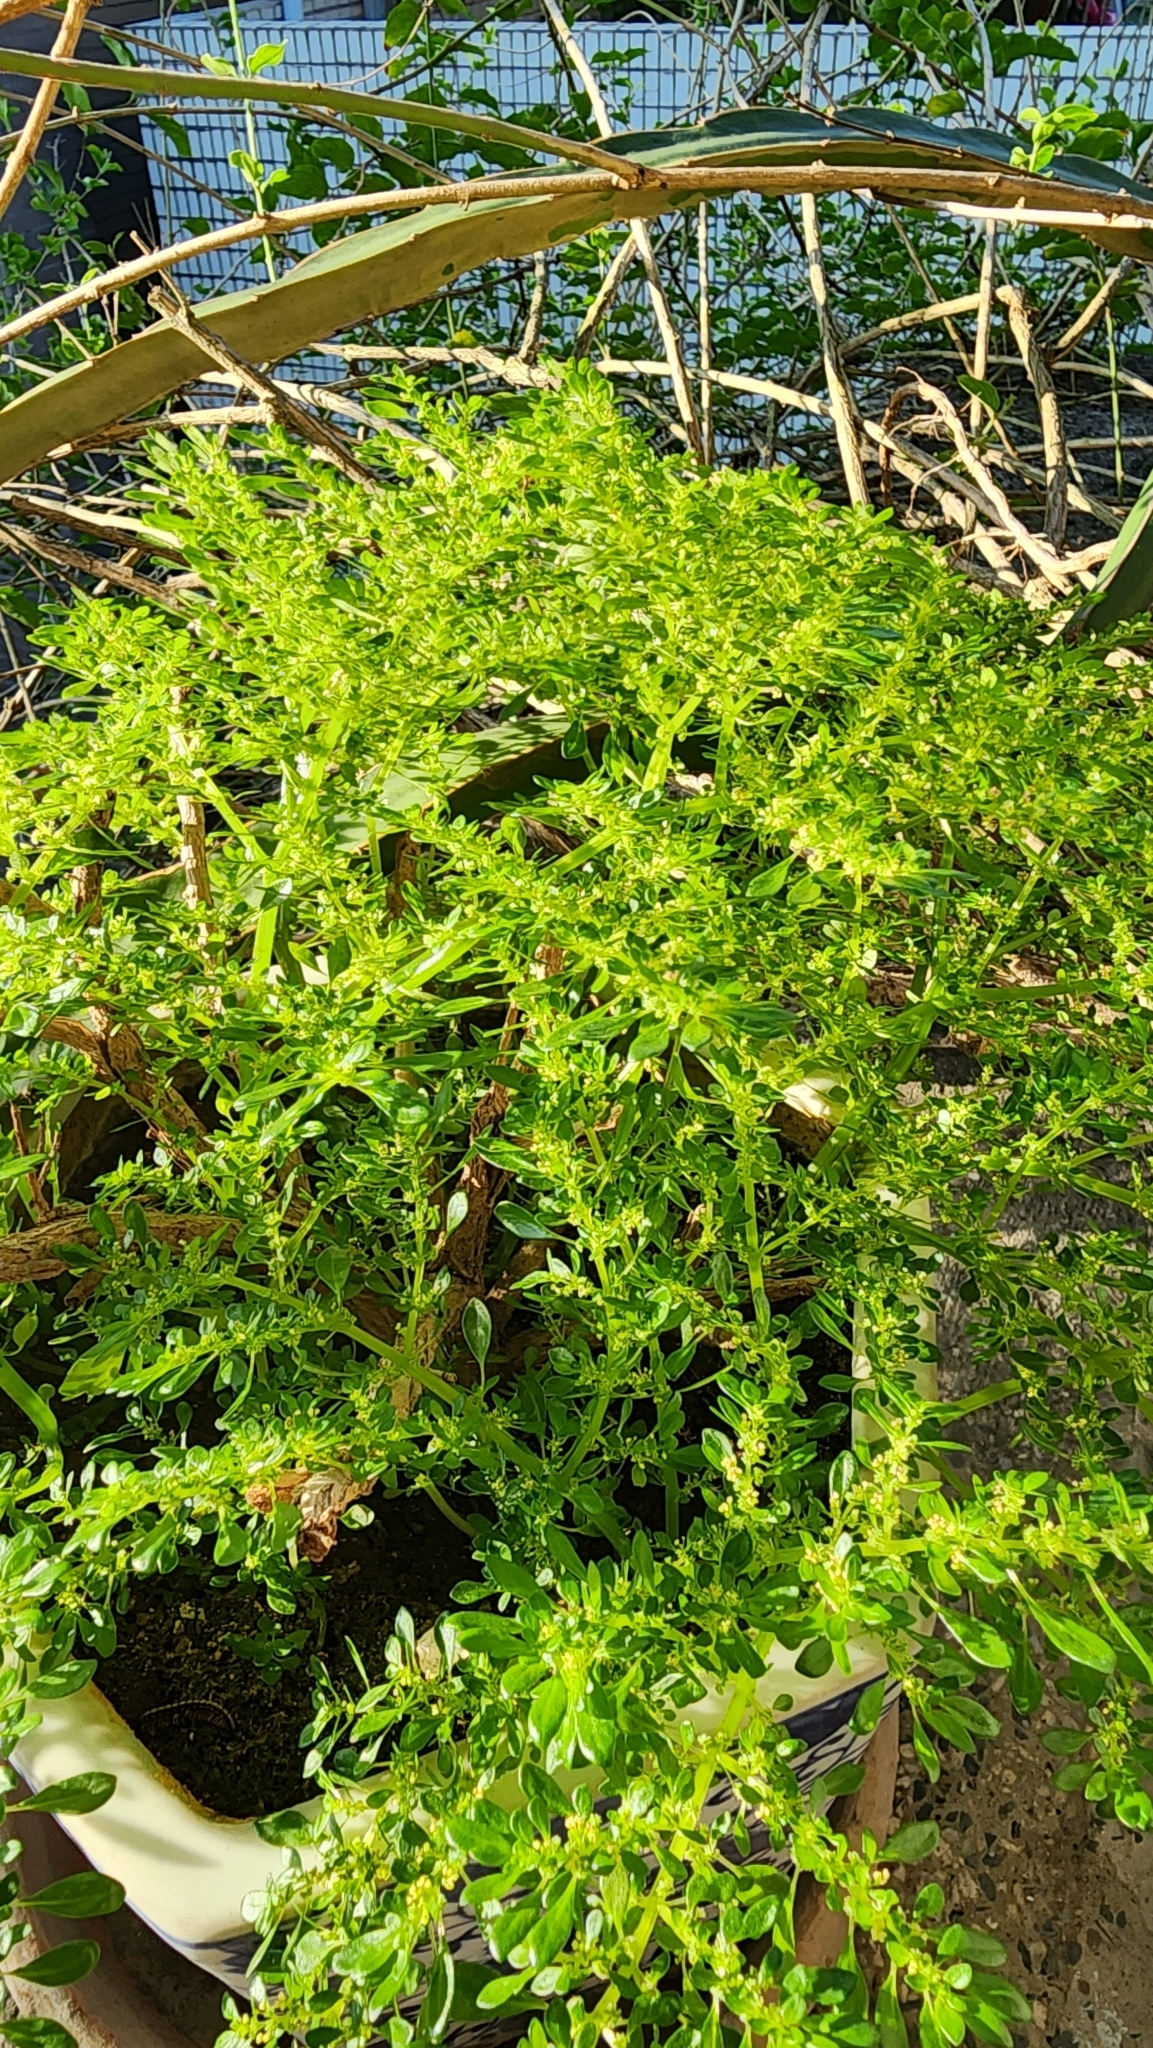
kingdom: Plantae
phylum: Tracheophyta
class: Magnoliopsida
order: Rosales
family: Urticaceae
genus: Pilea
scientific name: Pilea microphylla
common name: Artillery-plant
